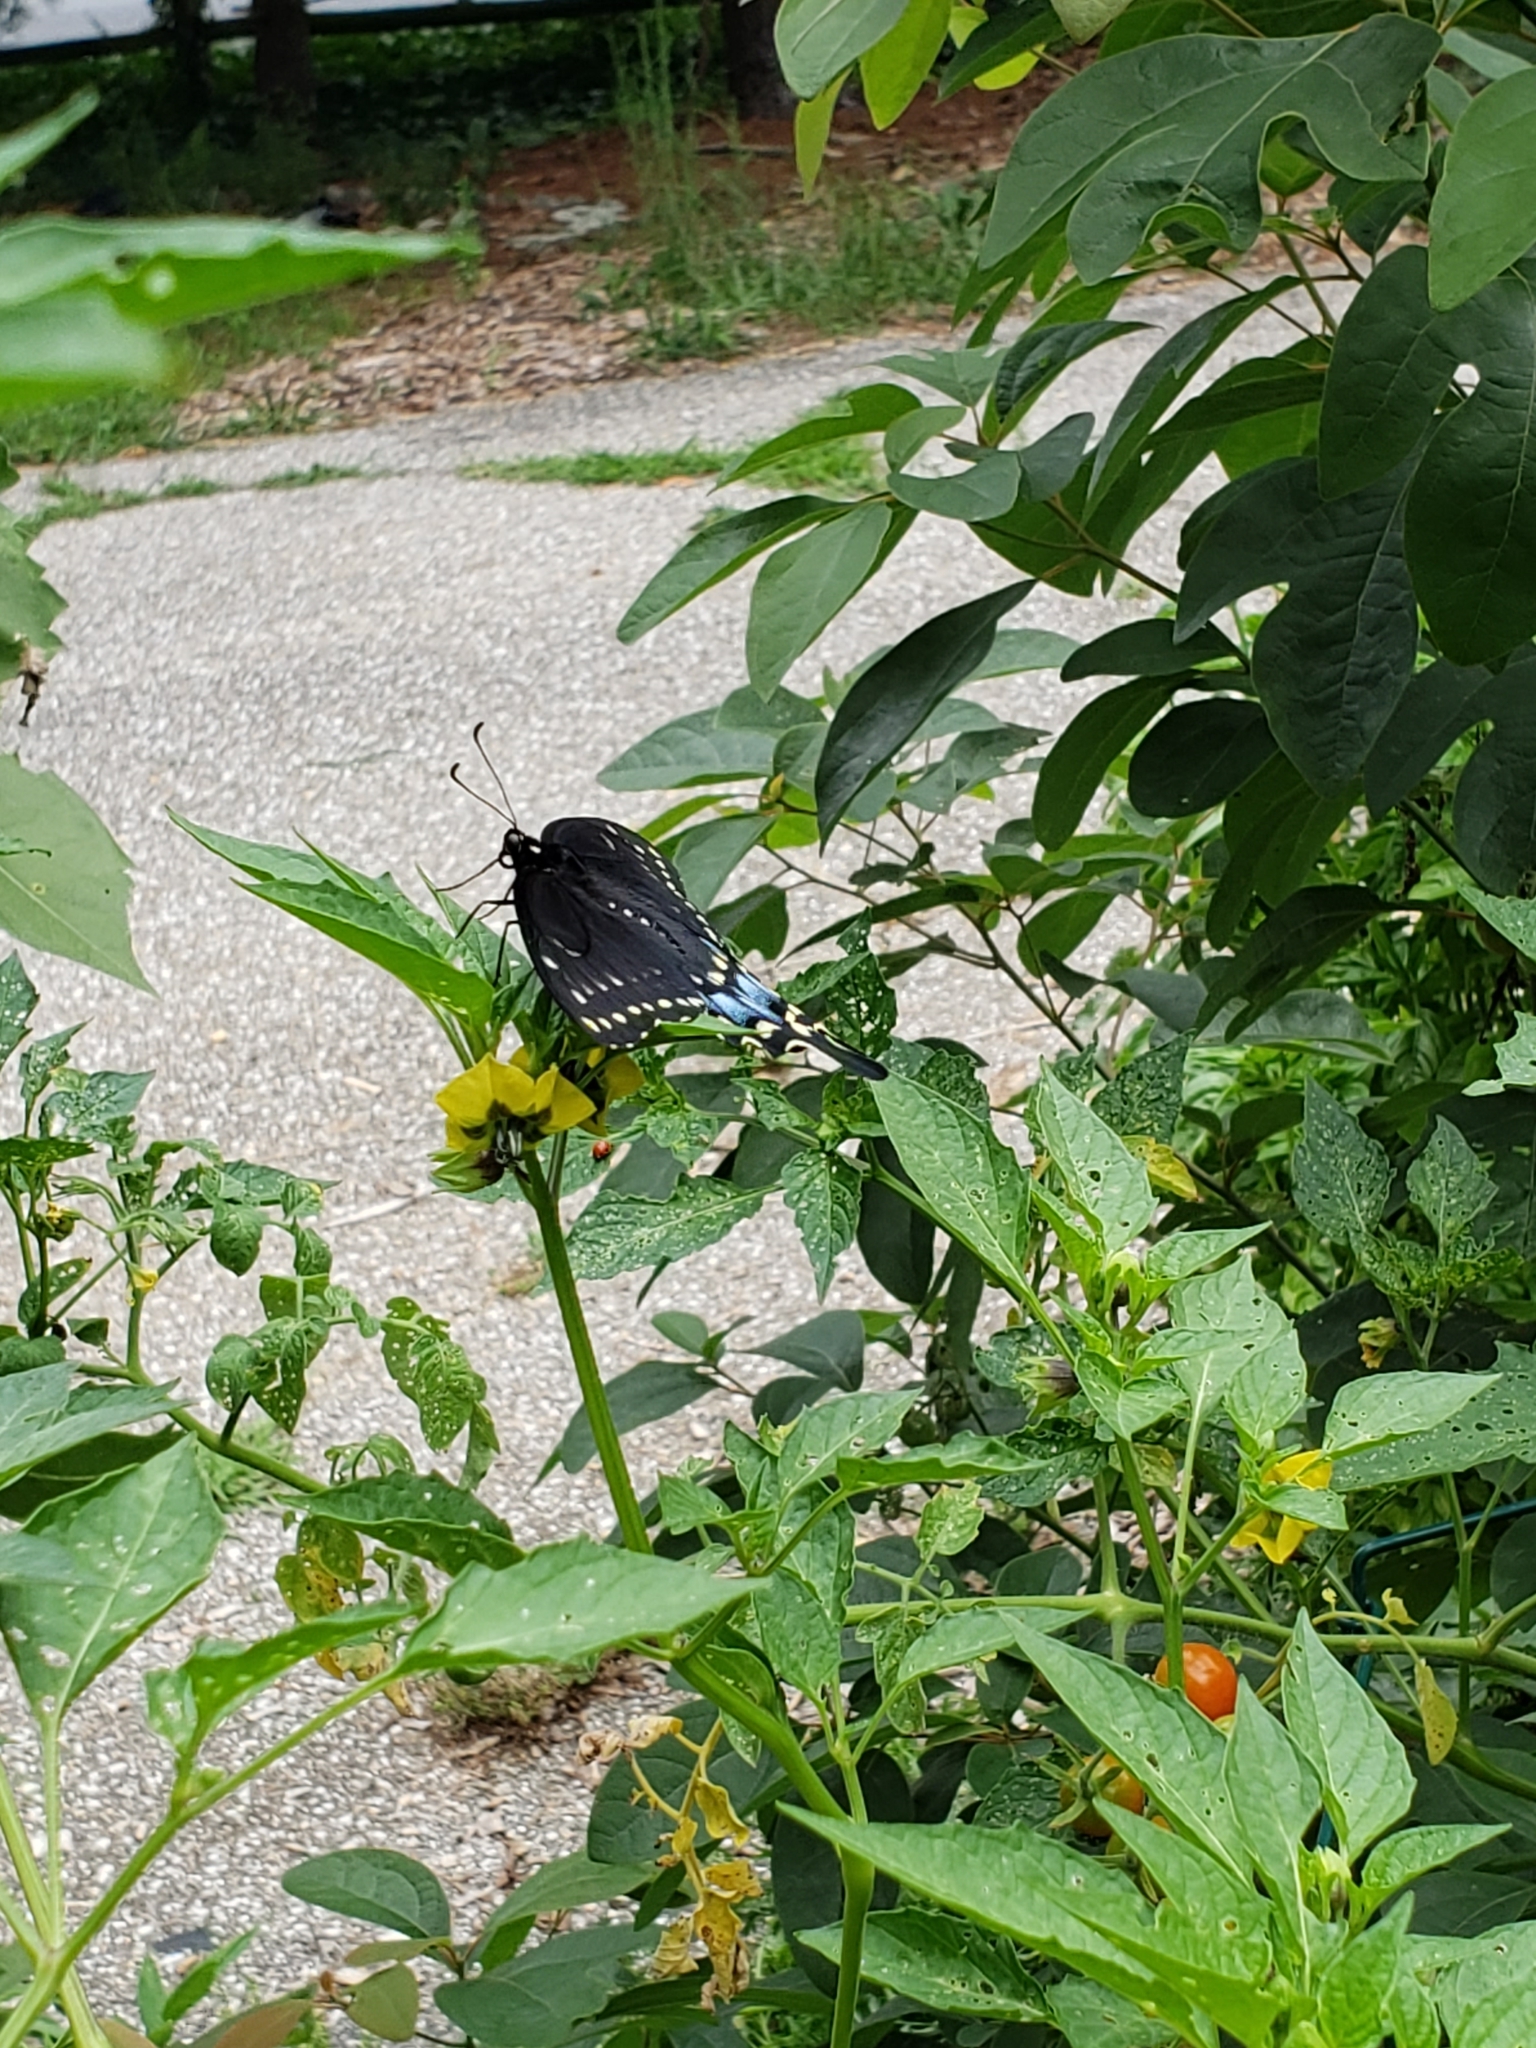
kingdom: Animalia
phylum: Arthropoda
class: Insecta
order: Lepidoptera
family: Papilionidae
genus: Papilio
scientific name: Papilio polyxenes
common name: Black swallowtail
